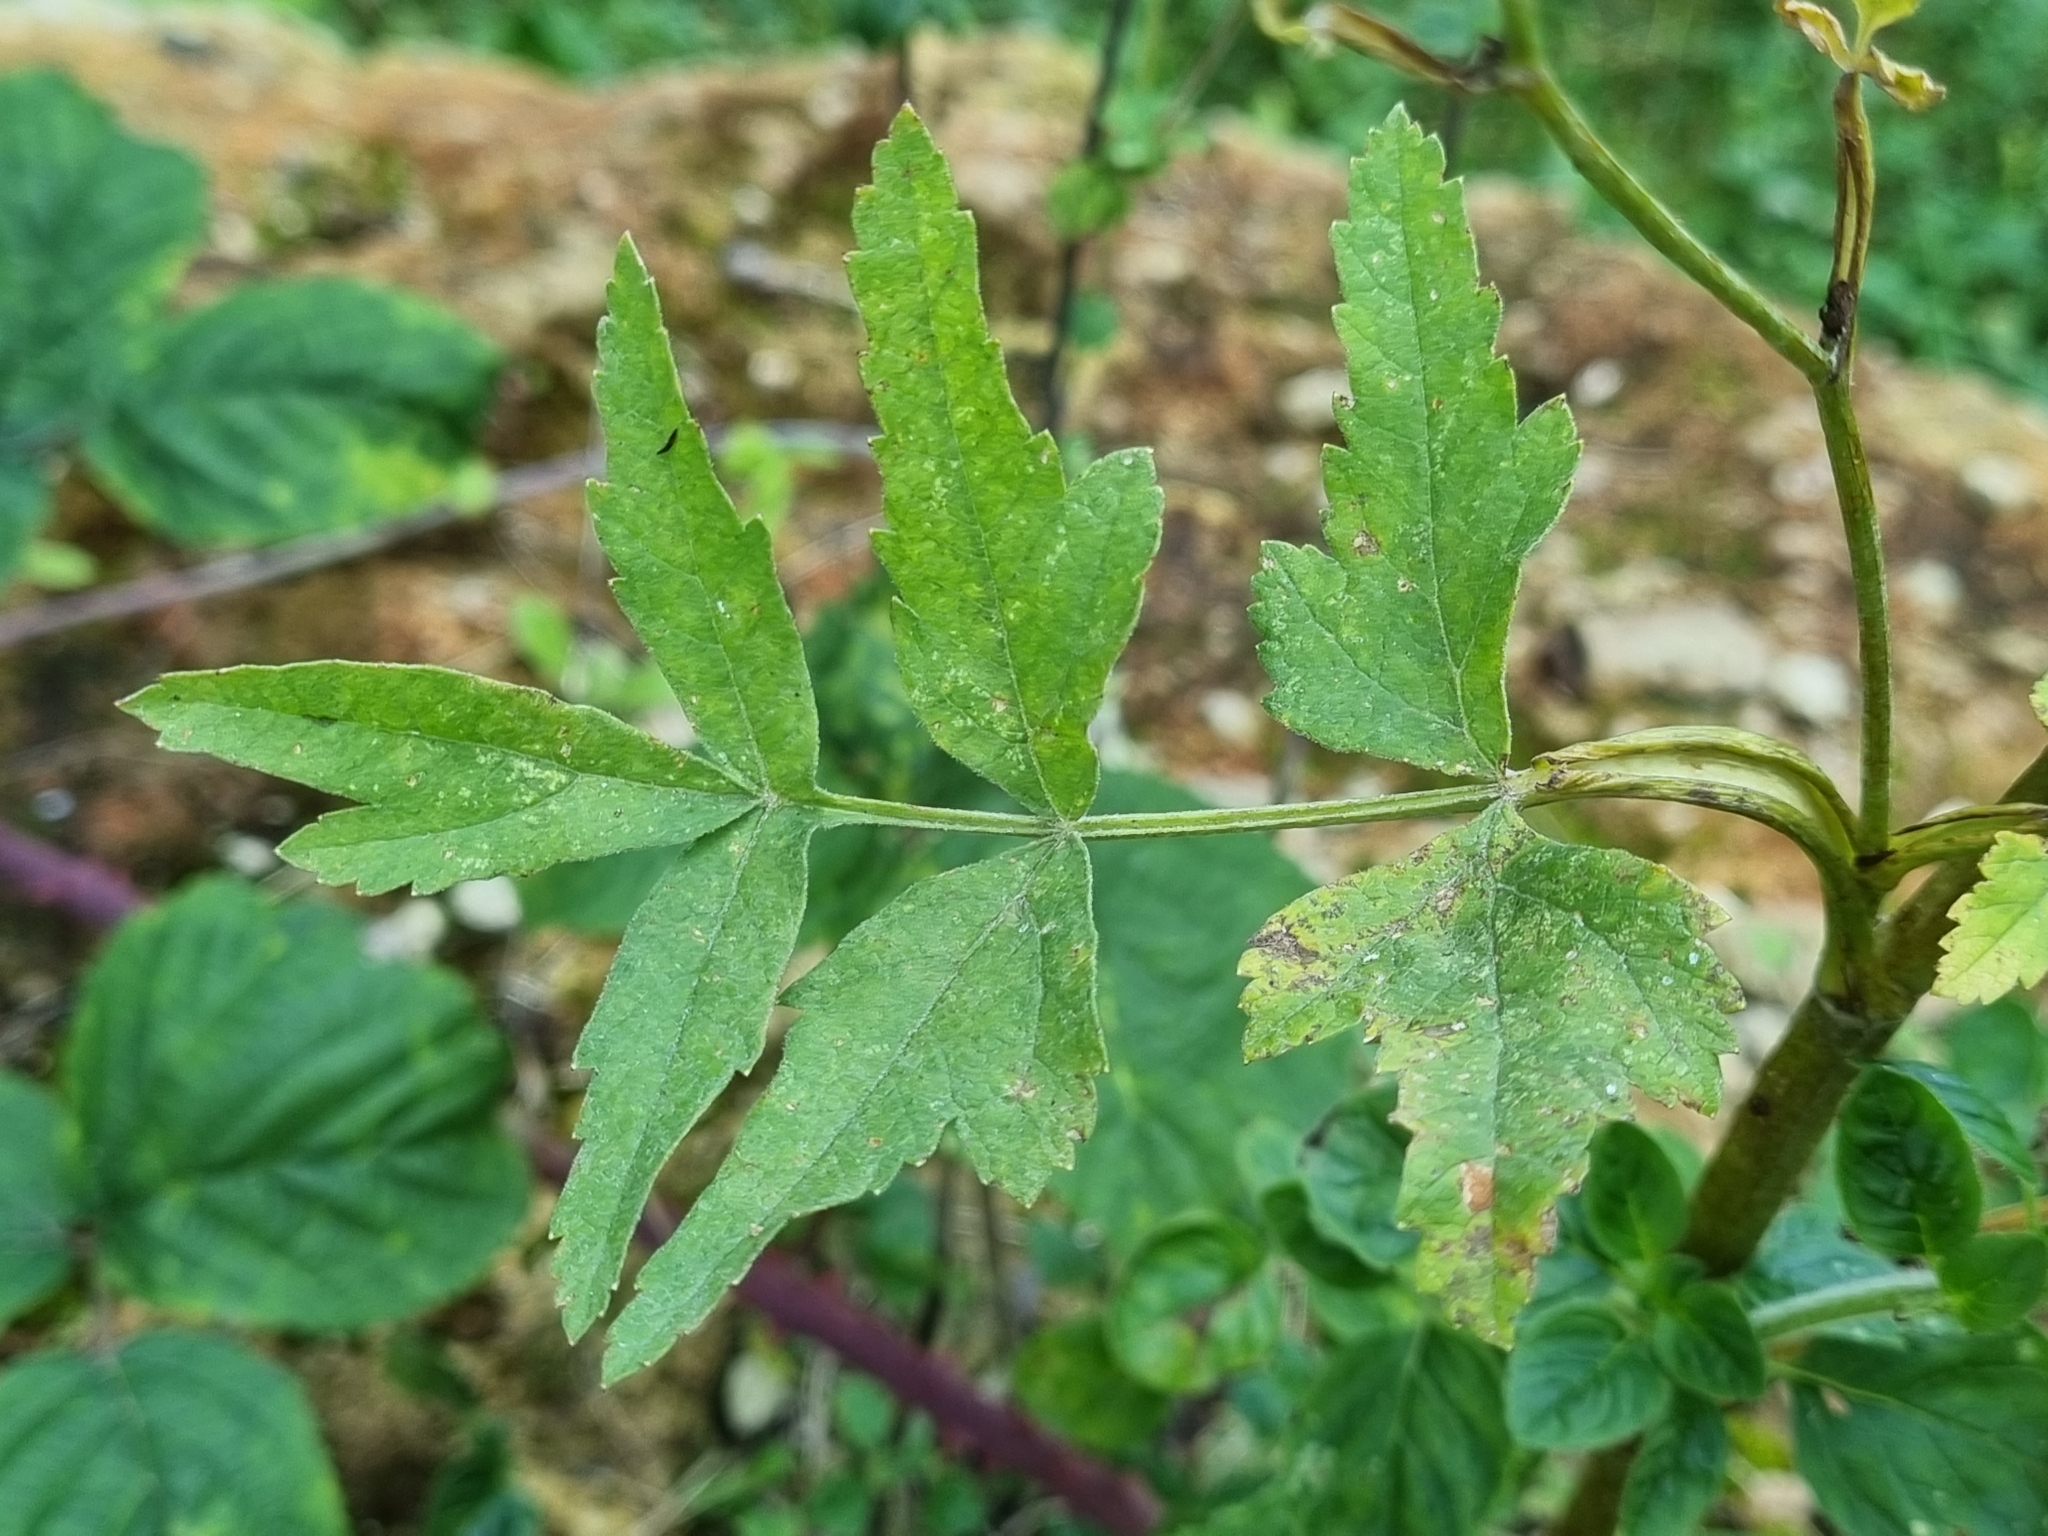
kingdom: Plantae
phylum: Tracheophyta
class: Magnoliopsida
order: Apiales
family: Apiaceae
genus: Pastinaca
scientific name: Pastinaca sativa
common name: Wild parsnip
